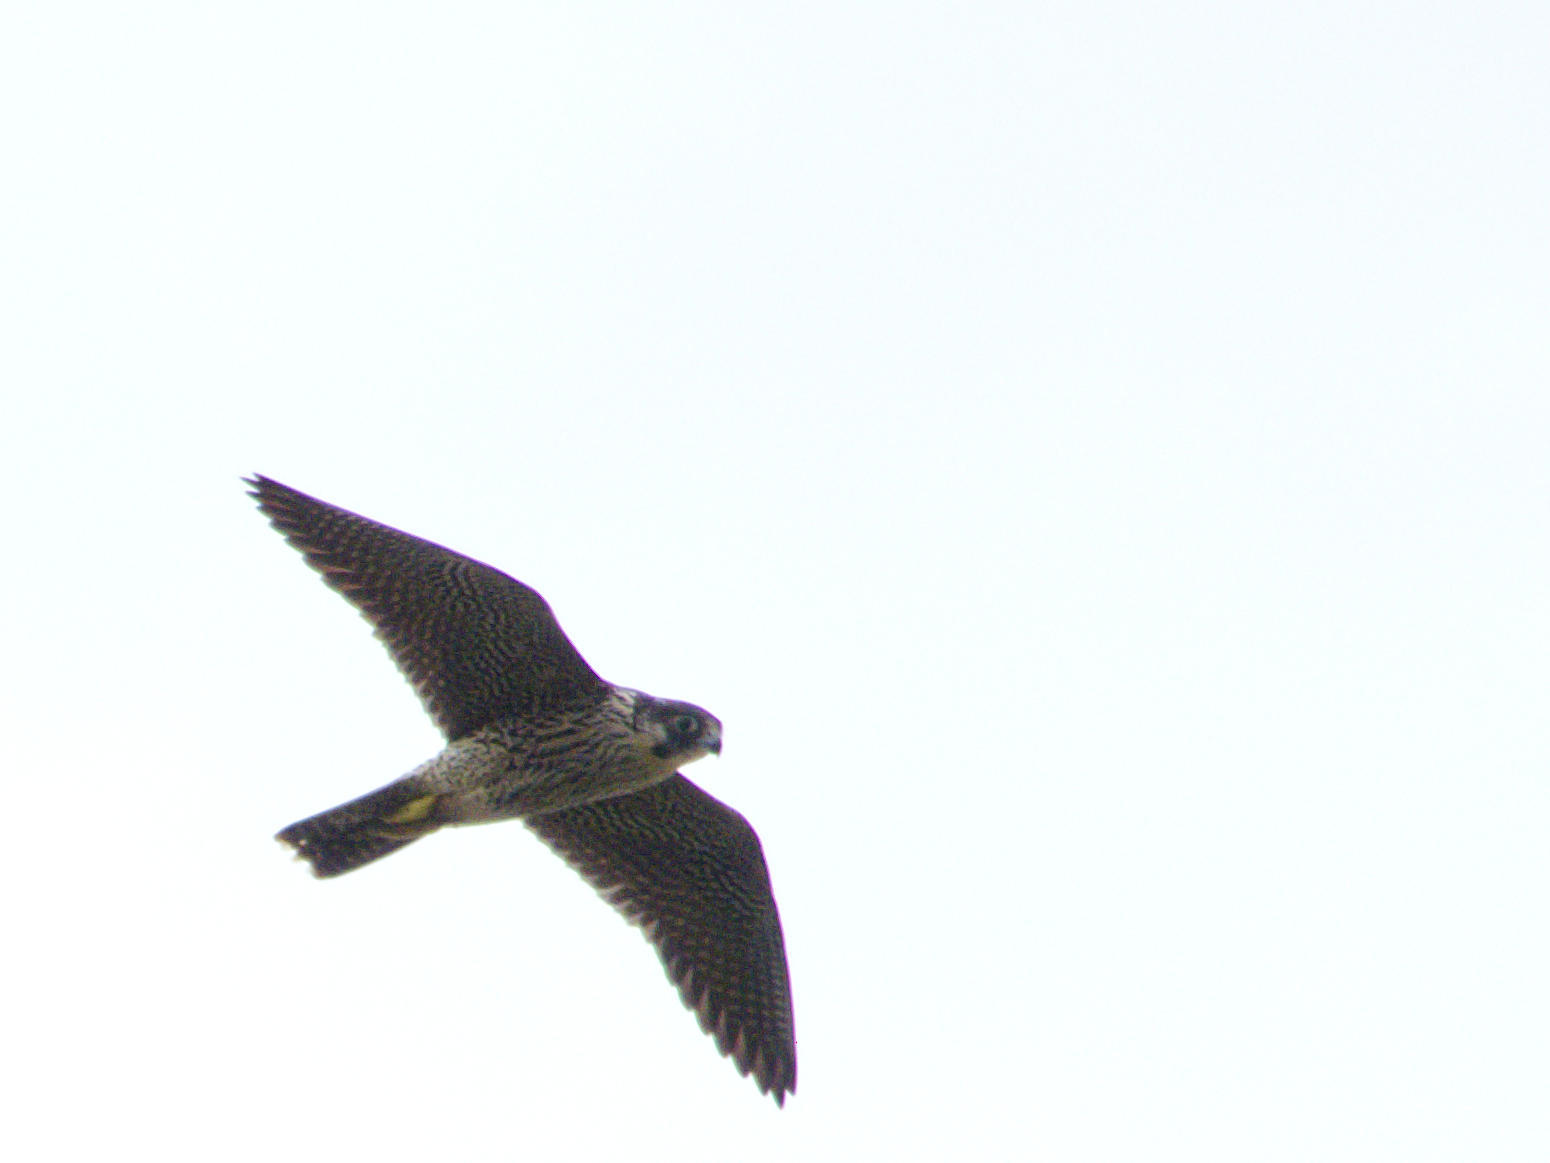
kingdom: Animalia
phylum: Chordata
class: Aves
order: Falconiformes
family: Falconidae
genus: Falco
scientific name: Falco peregrinus
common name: Peregrine falcon
